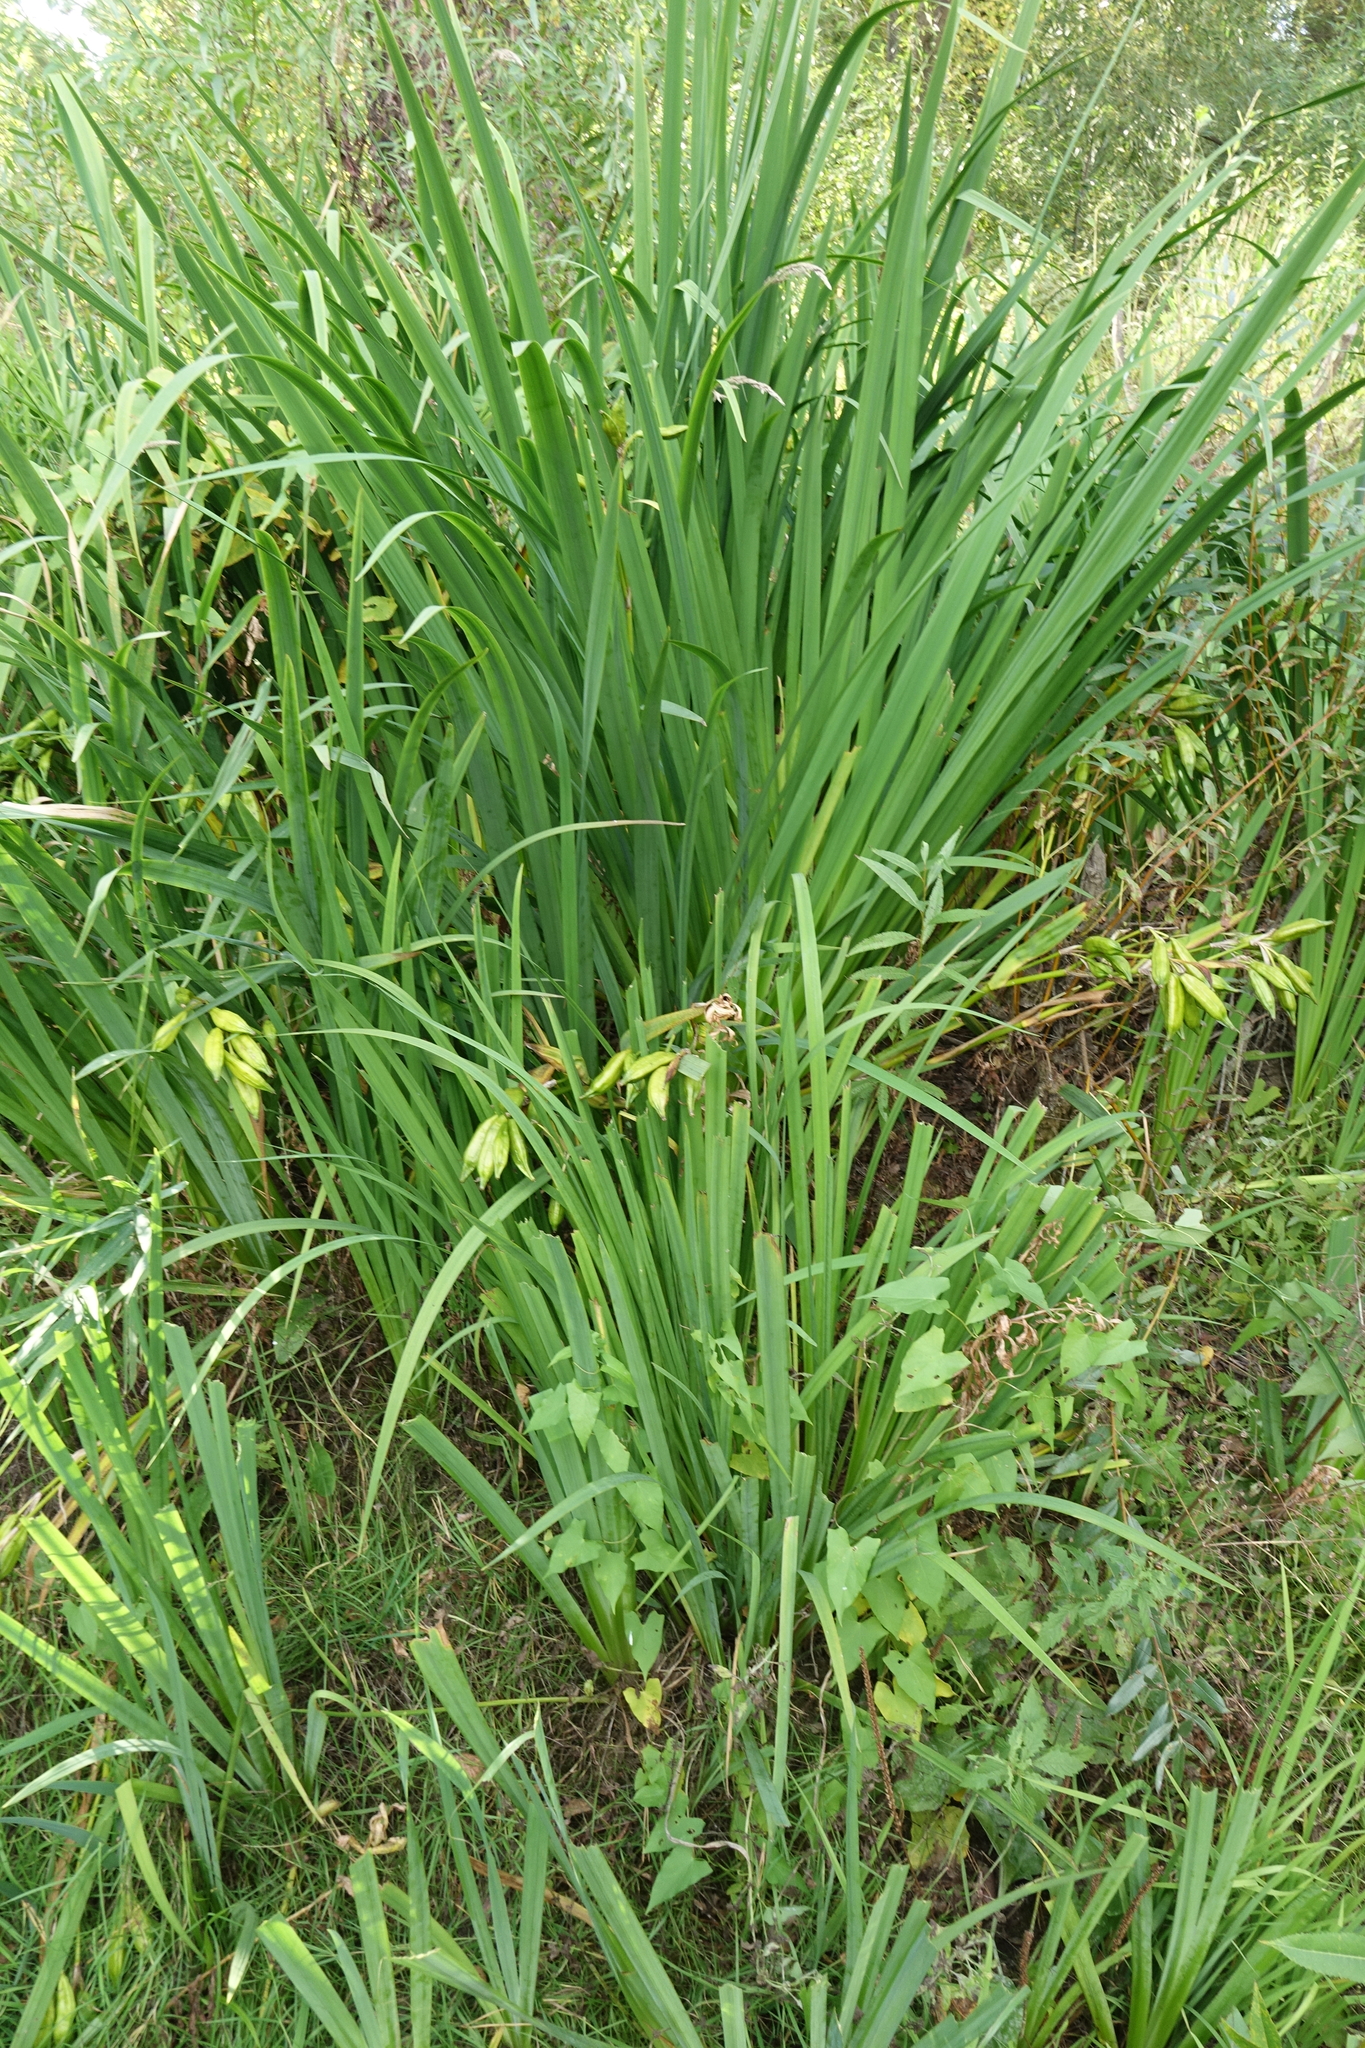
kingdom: Plantae
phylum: Tracheophyta
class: Liliopsida
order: Asparagales
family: Iridaceae
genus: Iris
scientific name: Iris pseudacorus
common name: Yellow flag
